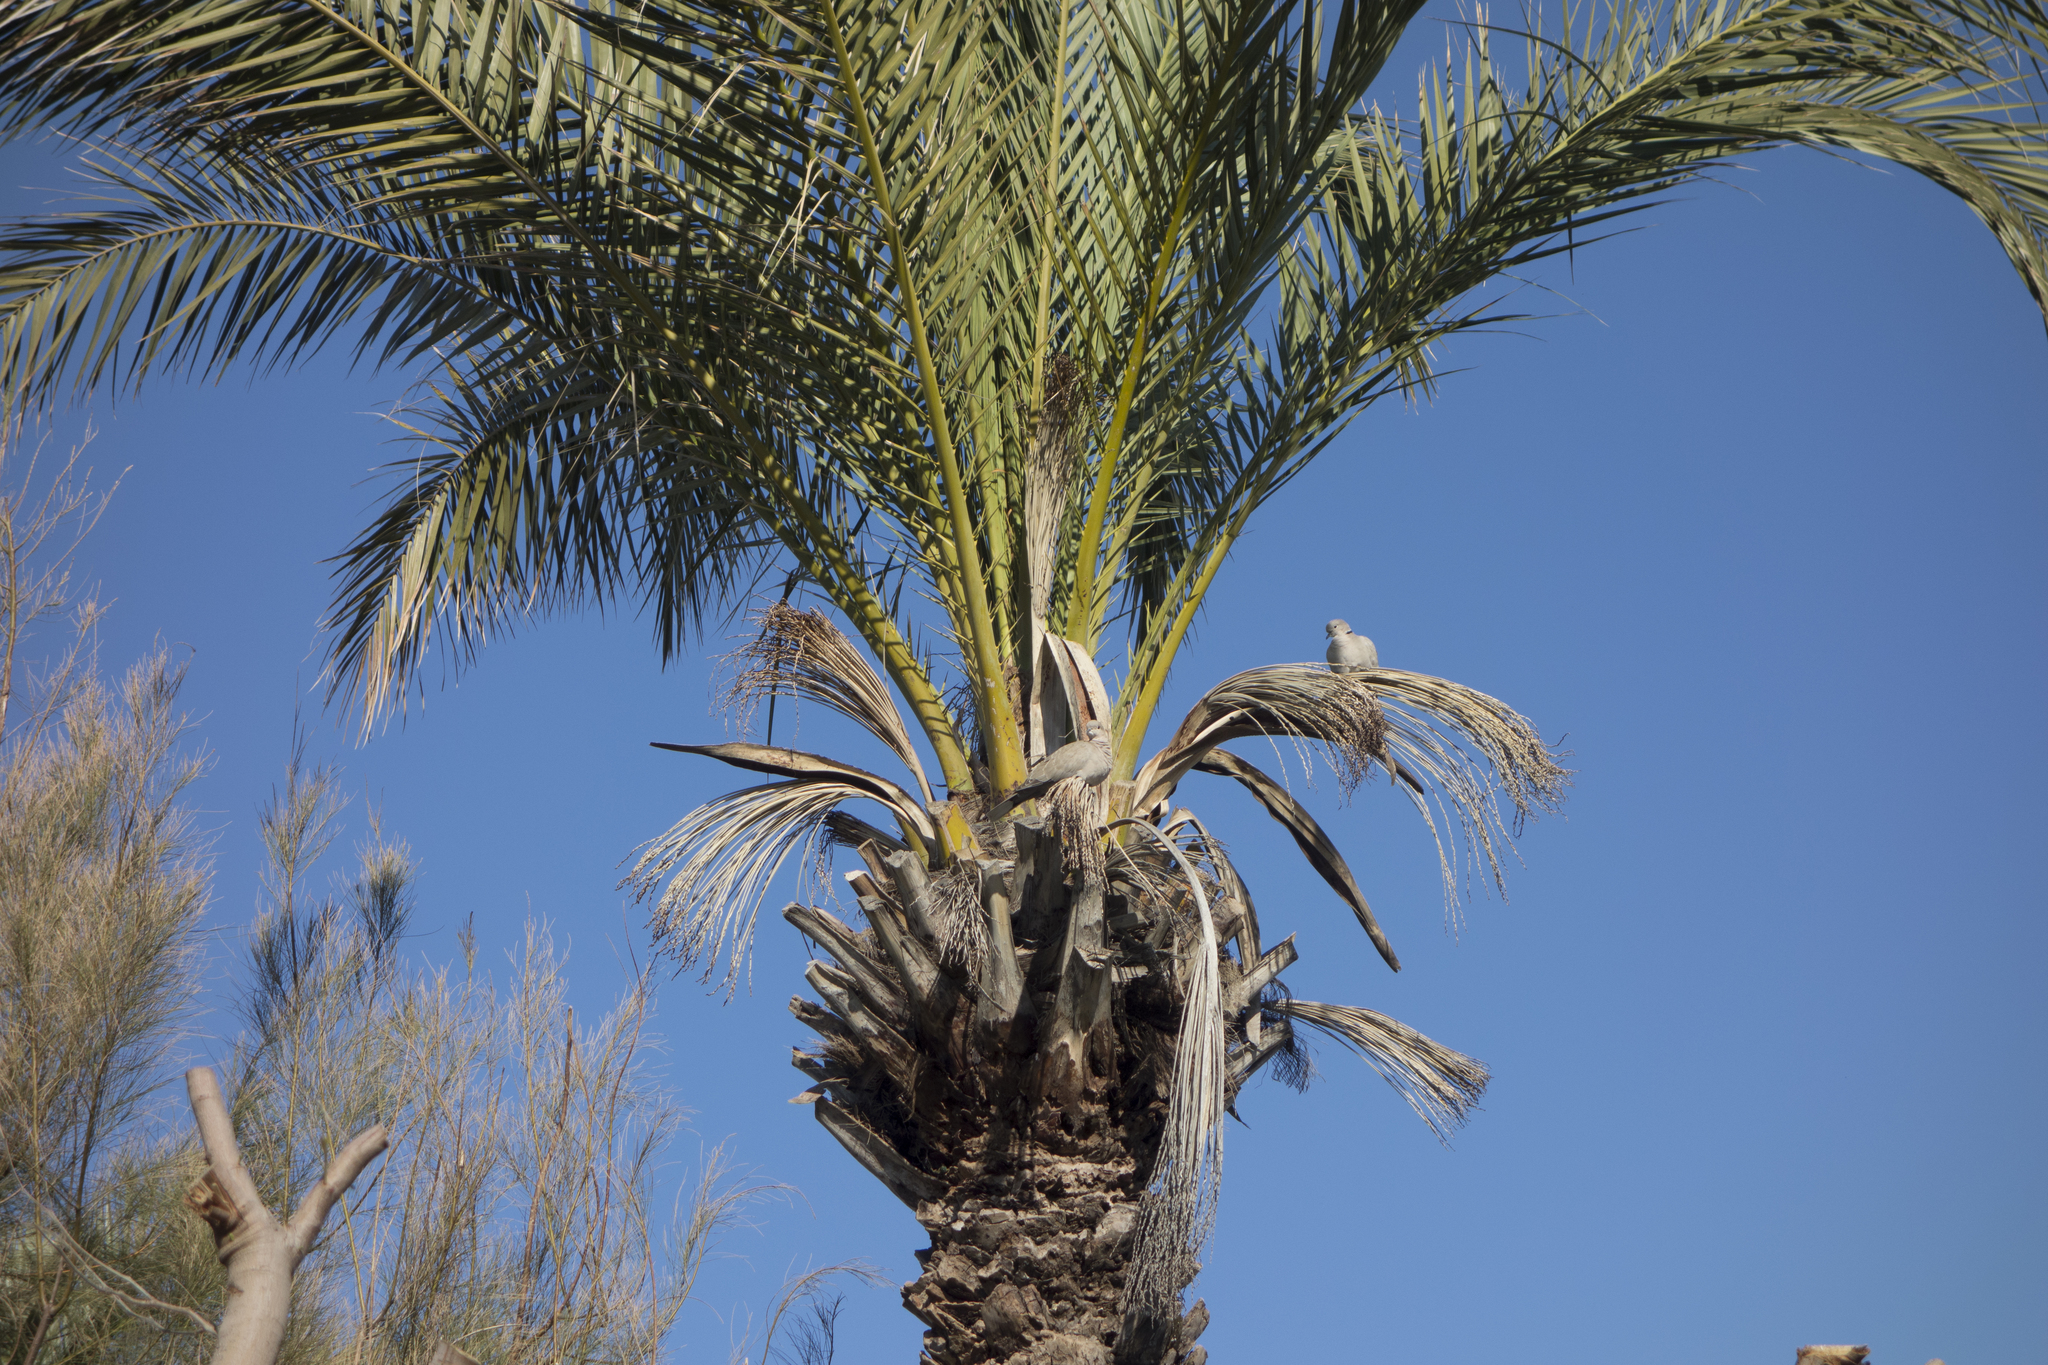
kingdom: Animalia
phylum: Chordata
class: Aves
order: Columbiformes
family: Columbidae
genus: Streptopelia
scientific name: Streptopelia decaocto
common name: Eurasian collared dove
